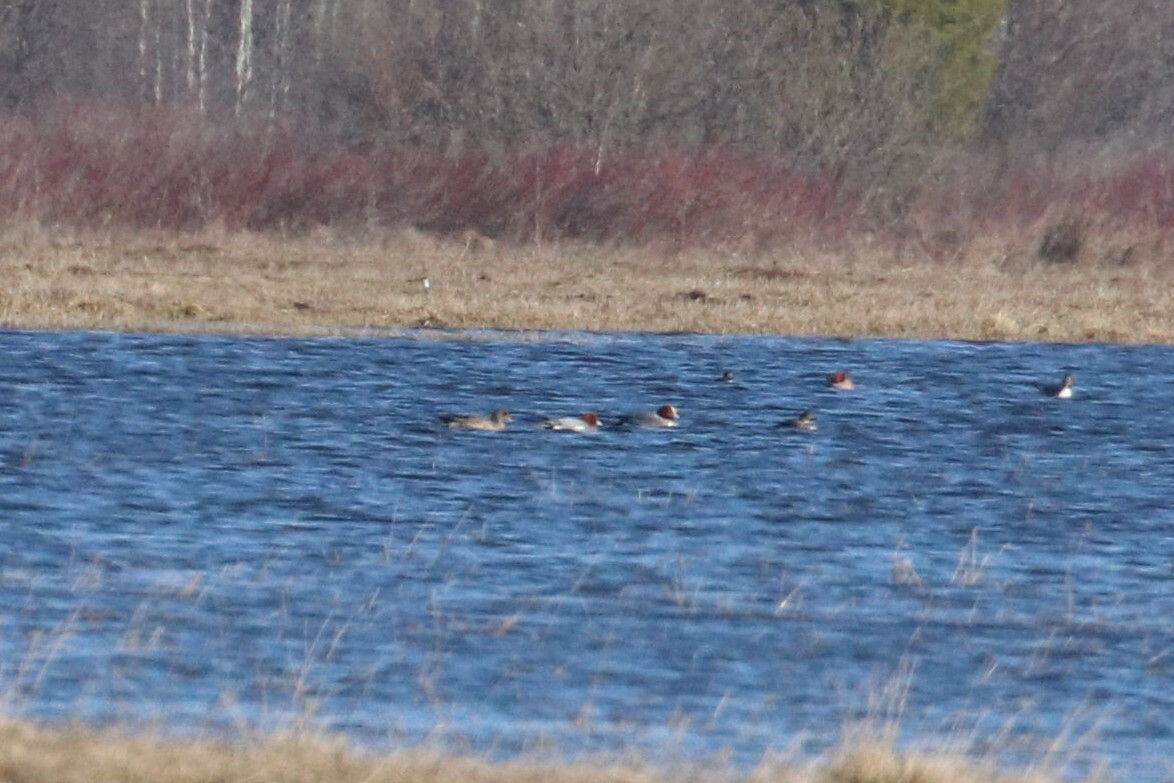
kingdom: Animalia
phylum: Chordata
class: Aves
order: Anseriformes
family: Anatidae
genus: Mareca
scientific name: Mareca penelope
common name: Eurasian wigeon
